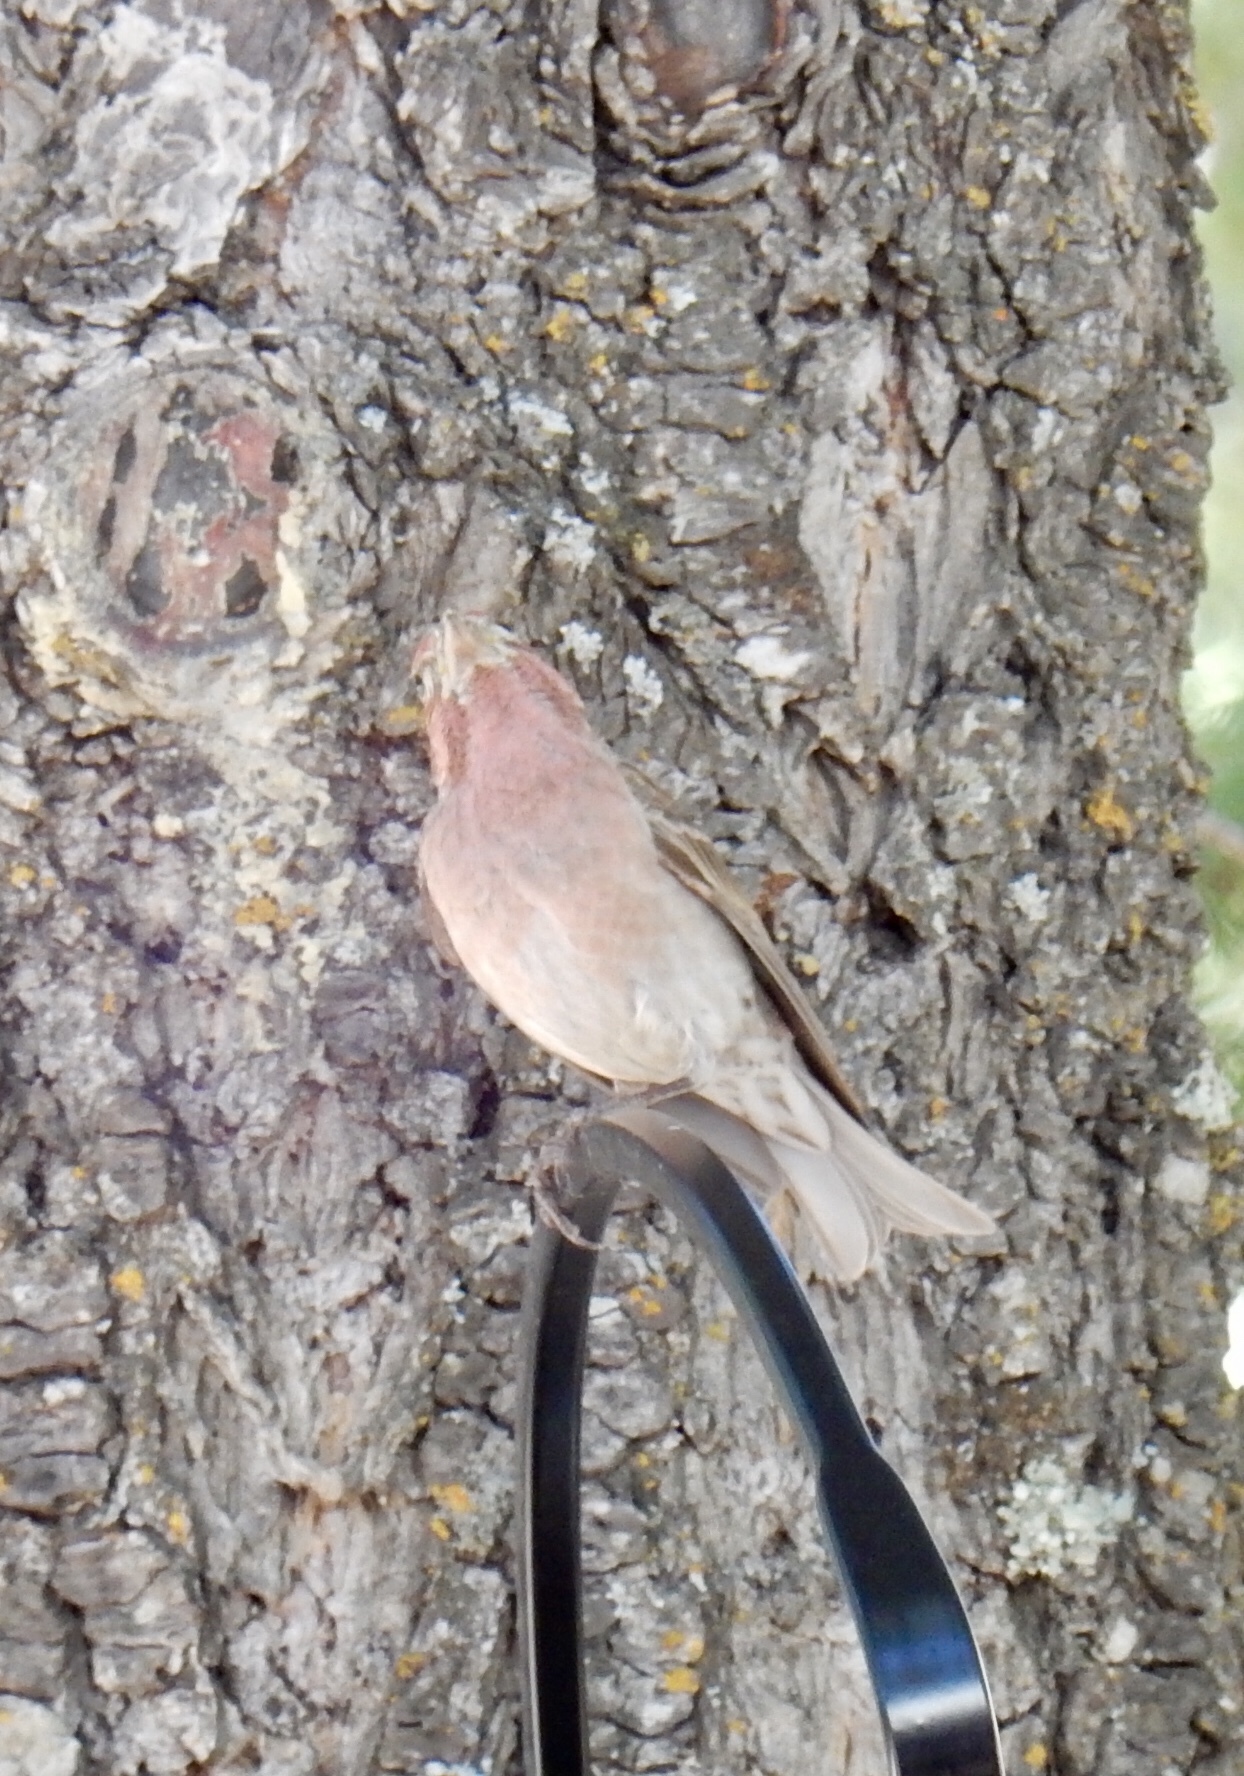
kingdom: Animalia
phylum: Chordata
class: Aves
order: Passeriformes
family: Fringillidae
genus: Haemorhous
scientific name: Haemorhous cassinii
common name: Cassin's finch
